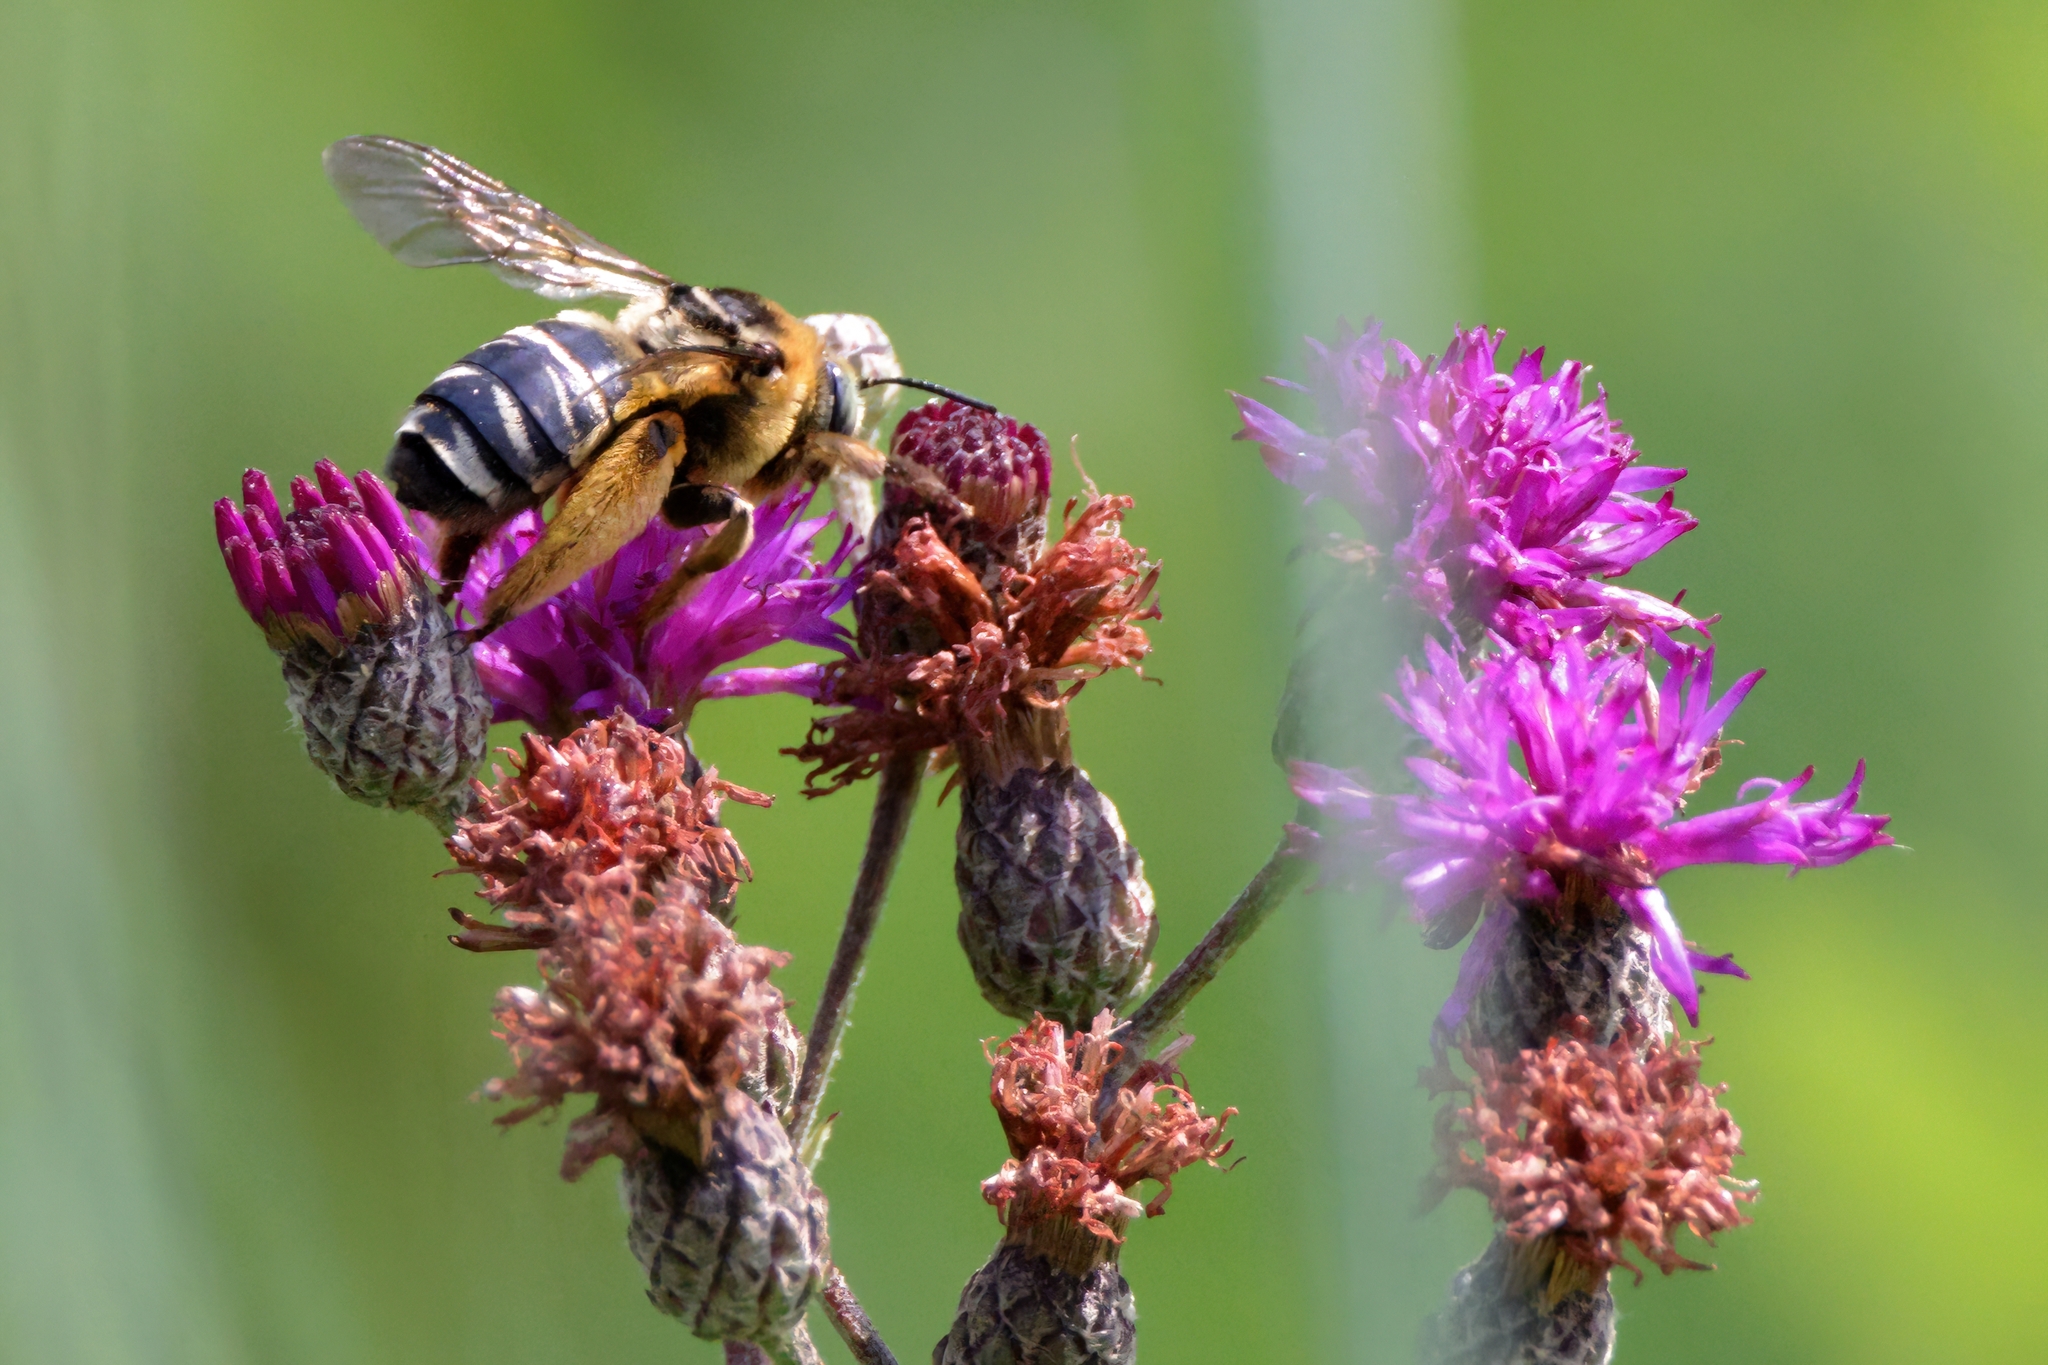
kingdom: Animalia
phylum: Arthropoda
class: Insecta
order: Hymenoptera
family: Apidae
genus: Svastra
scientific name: Svastra aegis
